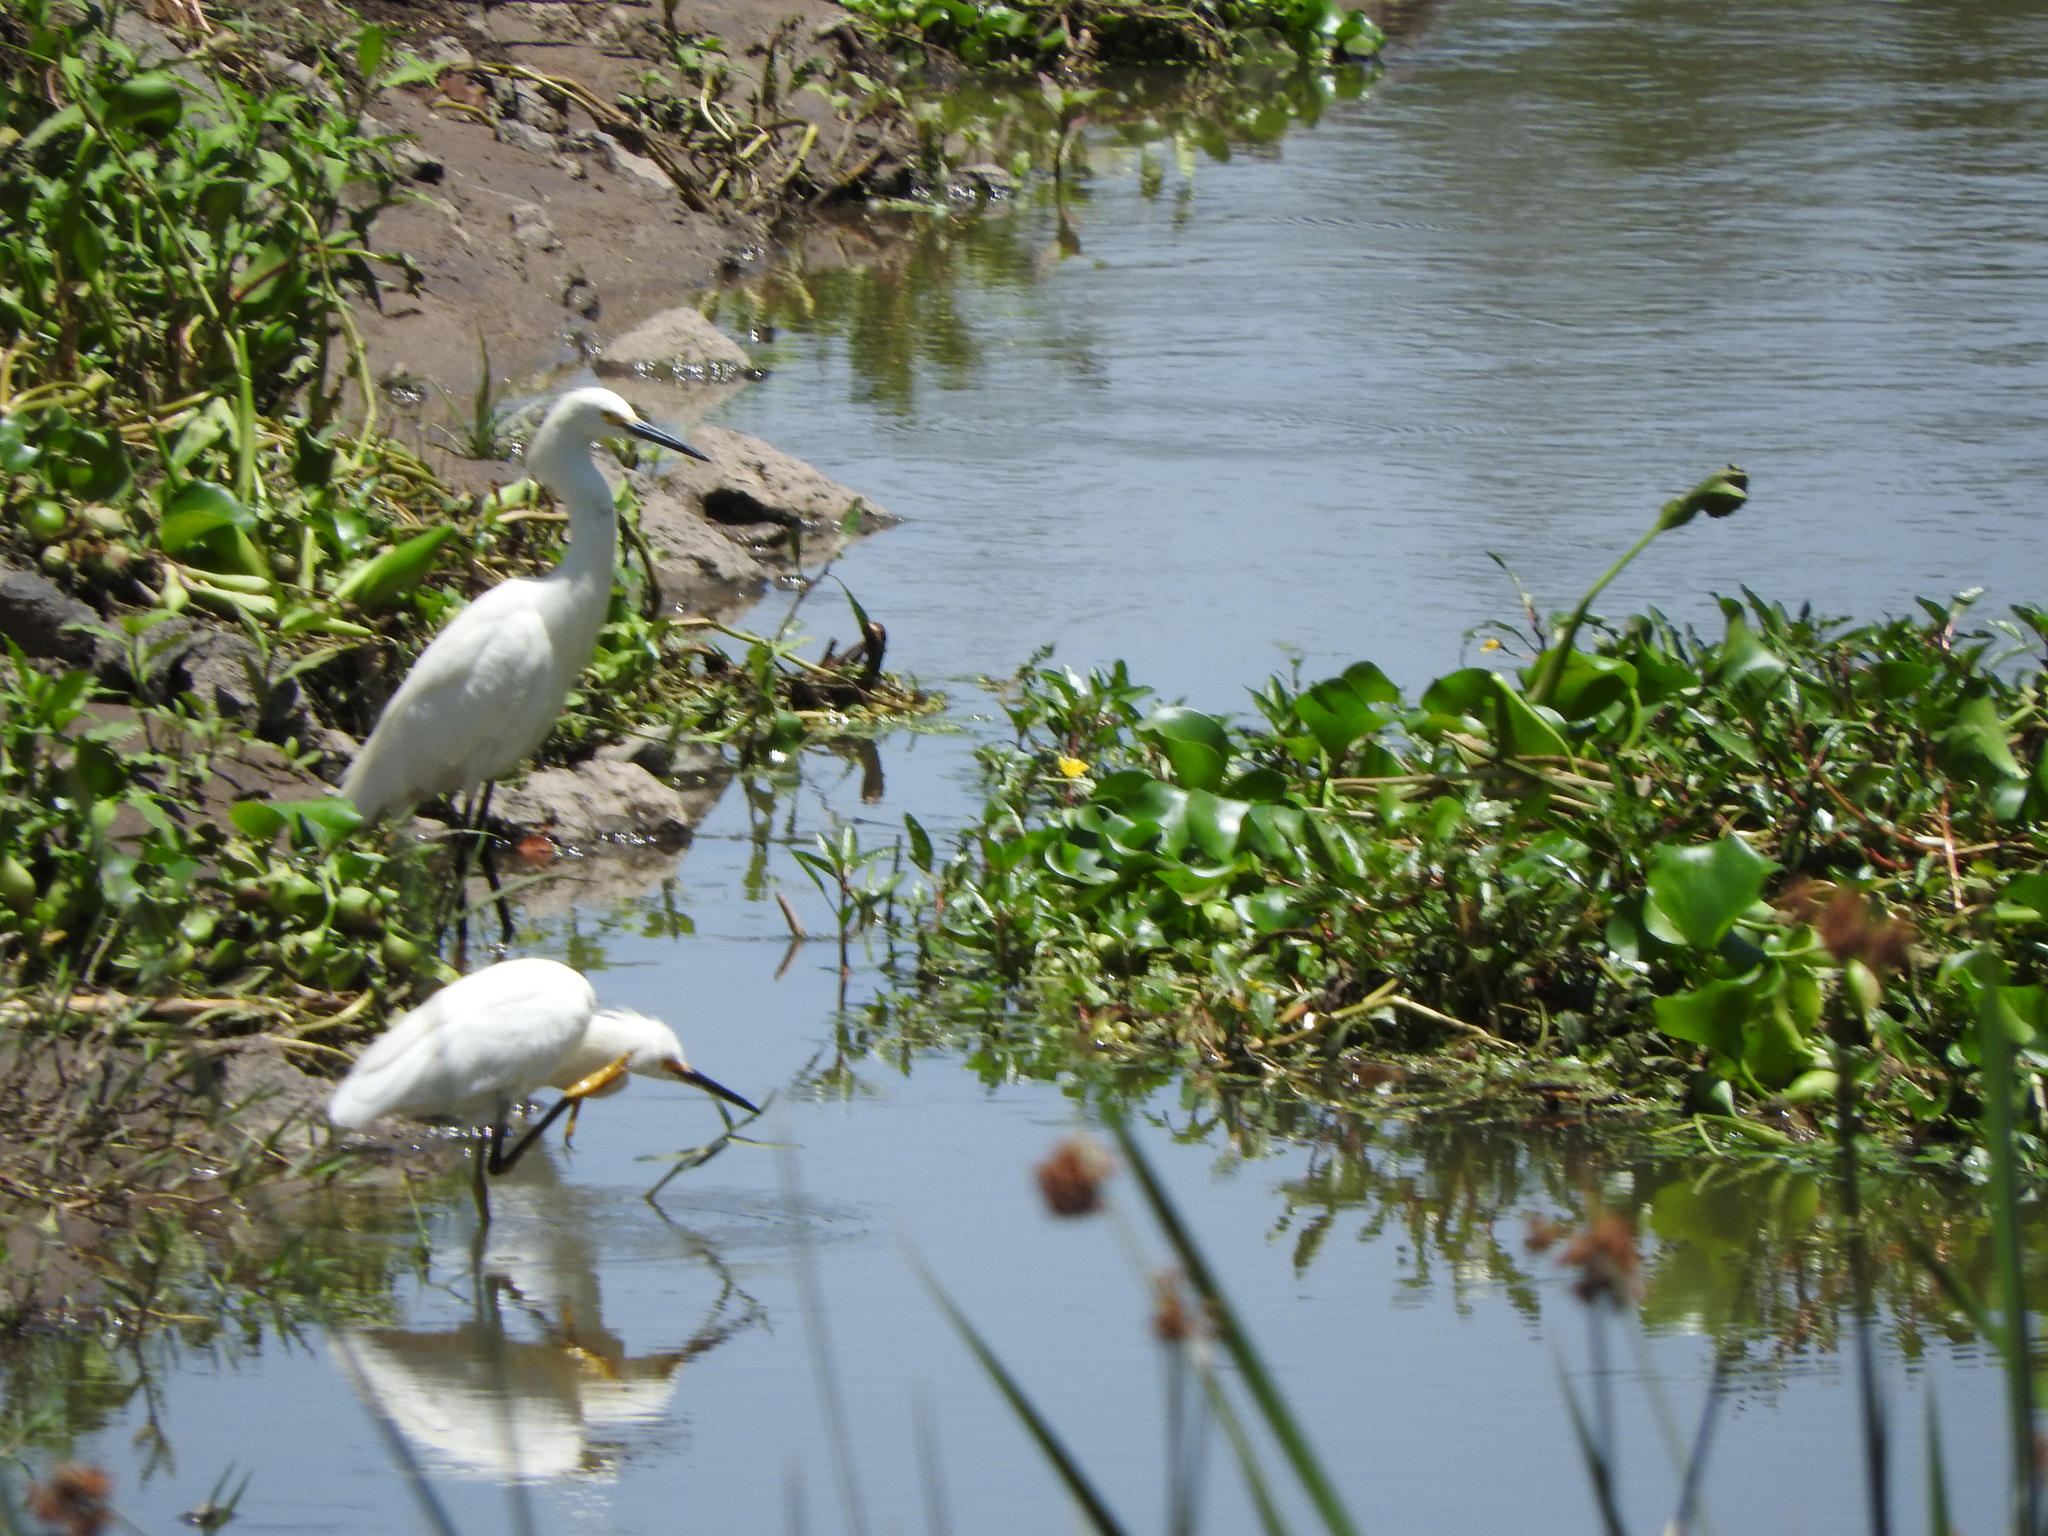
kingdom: Animalia
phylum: Chordata
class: Aves
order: Pelecaniformes
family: Ardeidae
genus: Egretta
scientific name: Egretta thula
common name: Snowy egret
